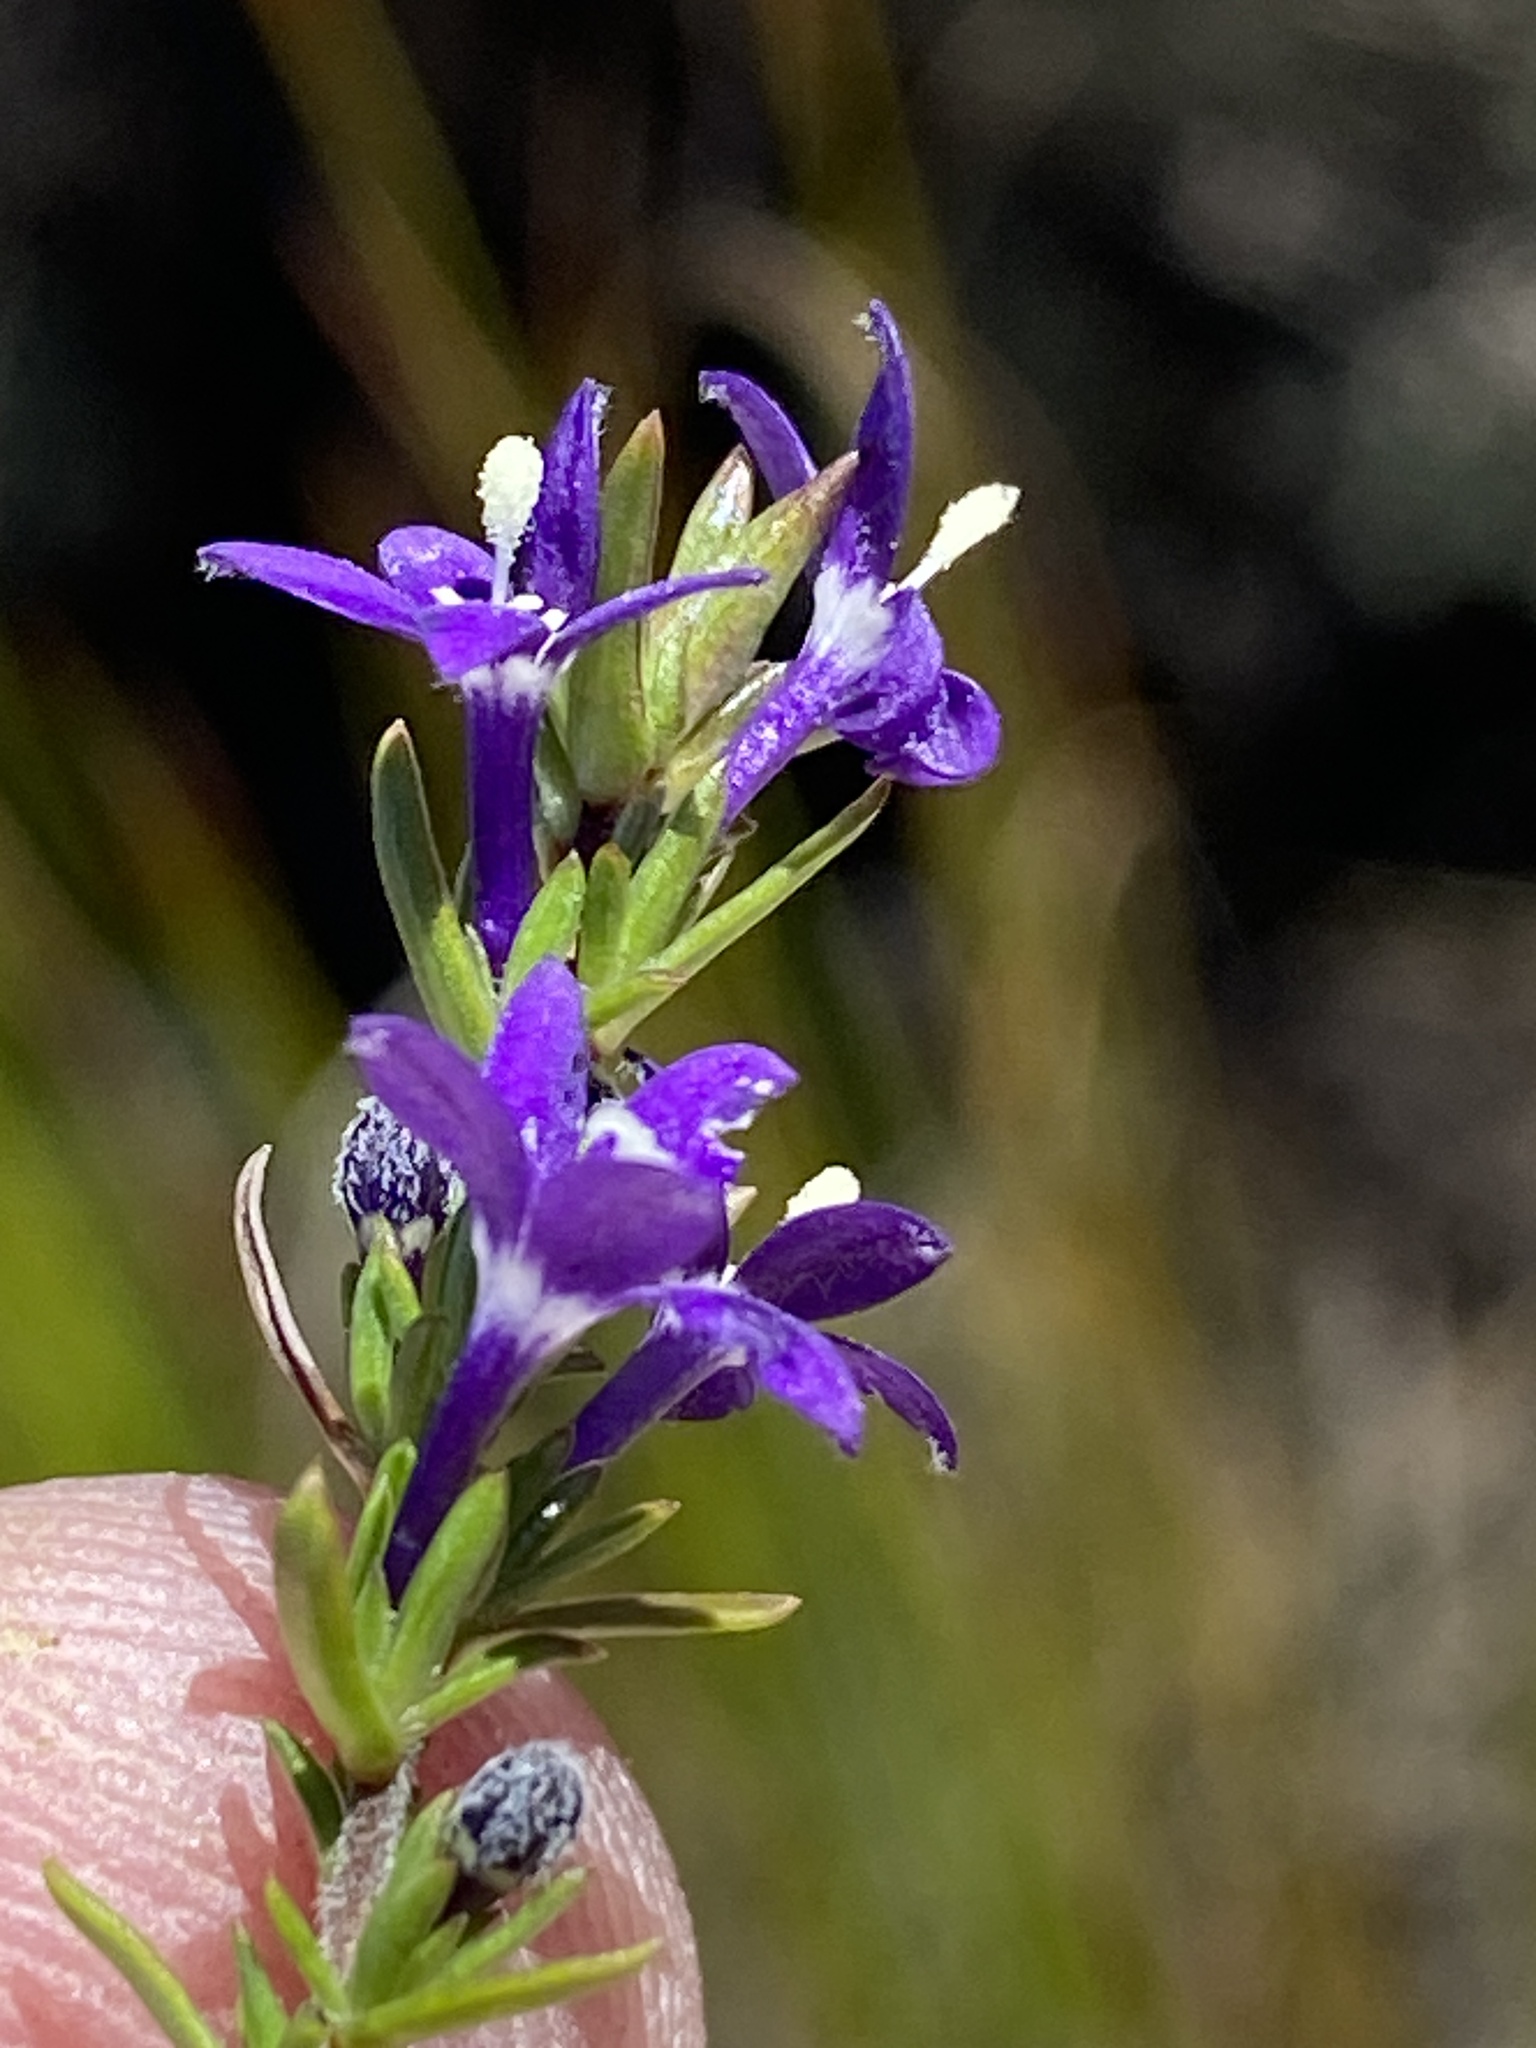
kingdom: Plantae
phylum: Tracheophyta
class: Magnoliopsida
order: Asterales
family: Campanulaceae
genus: Theilera
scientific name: Theilera guthriei
